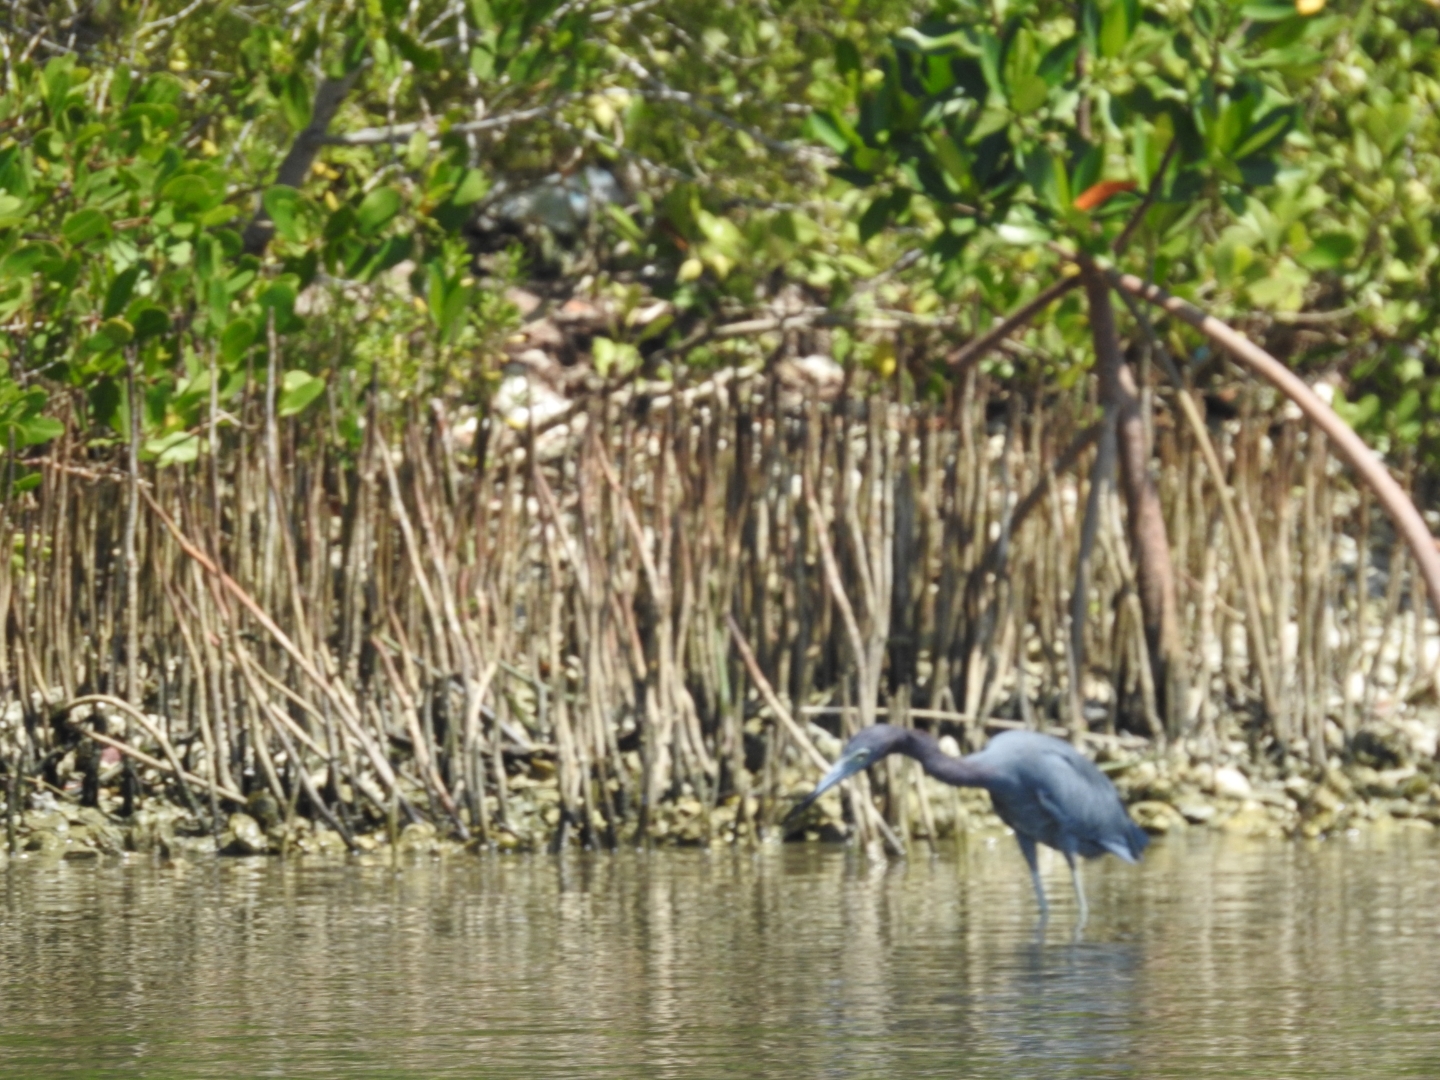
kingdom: Animalia
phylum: Chordata
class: Aves
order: Pelecaniformes
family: Ardeidae
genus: Egretta
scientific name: Egretta caerulea
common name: Little blue heron
